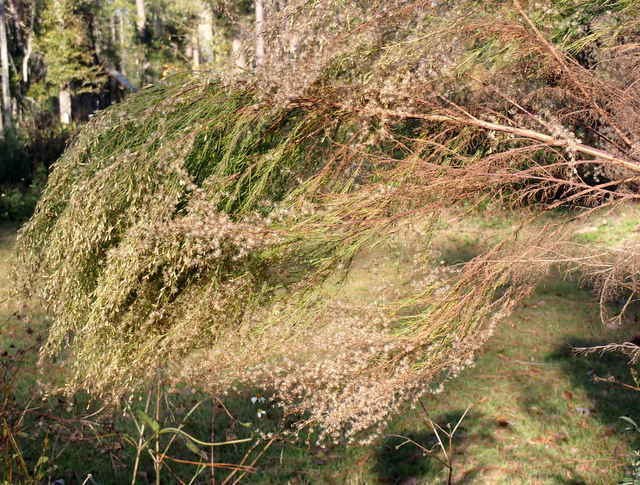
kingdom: Plantae
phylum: Tracheophyta
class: Magnoliopsida
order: Asterales
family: Asteraceae
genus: Eupatorium
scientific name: Eupatorium capillifolium
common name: Dog-fennel
